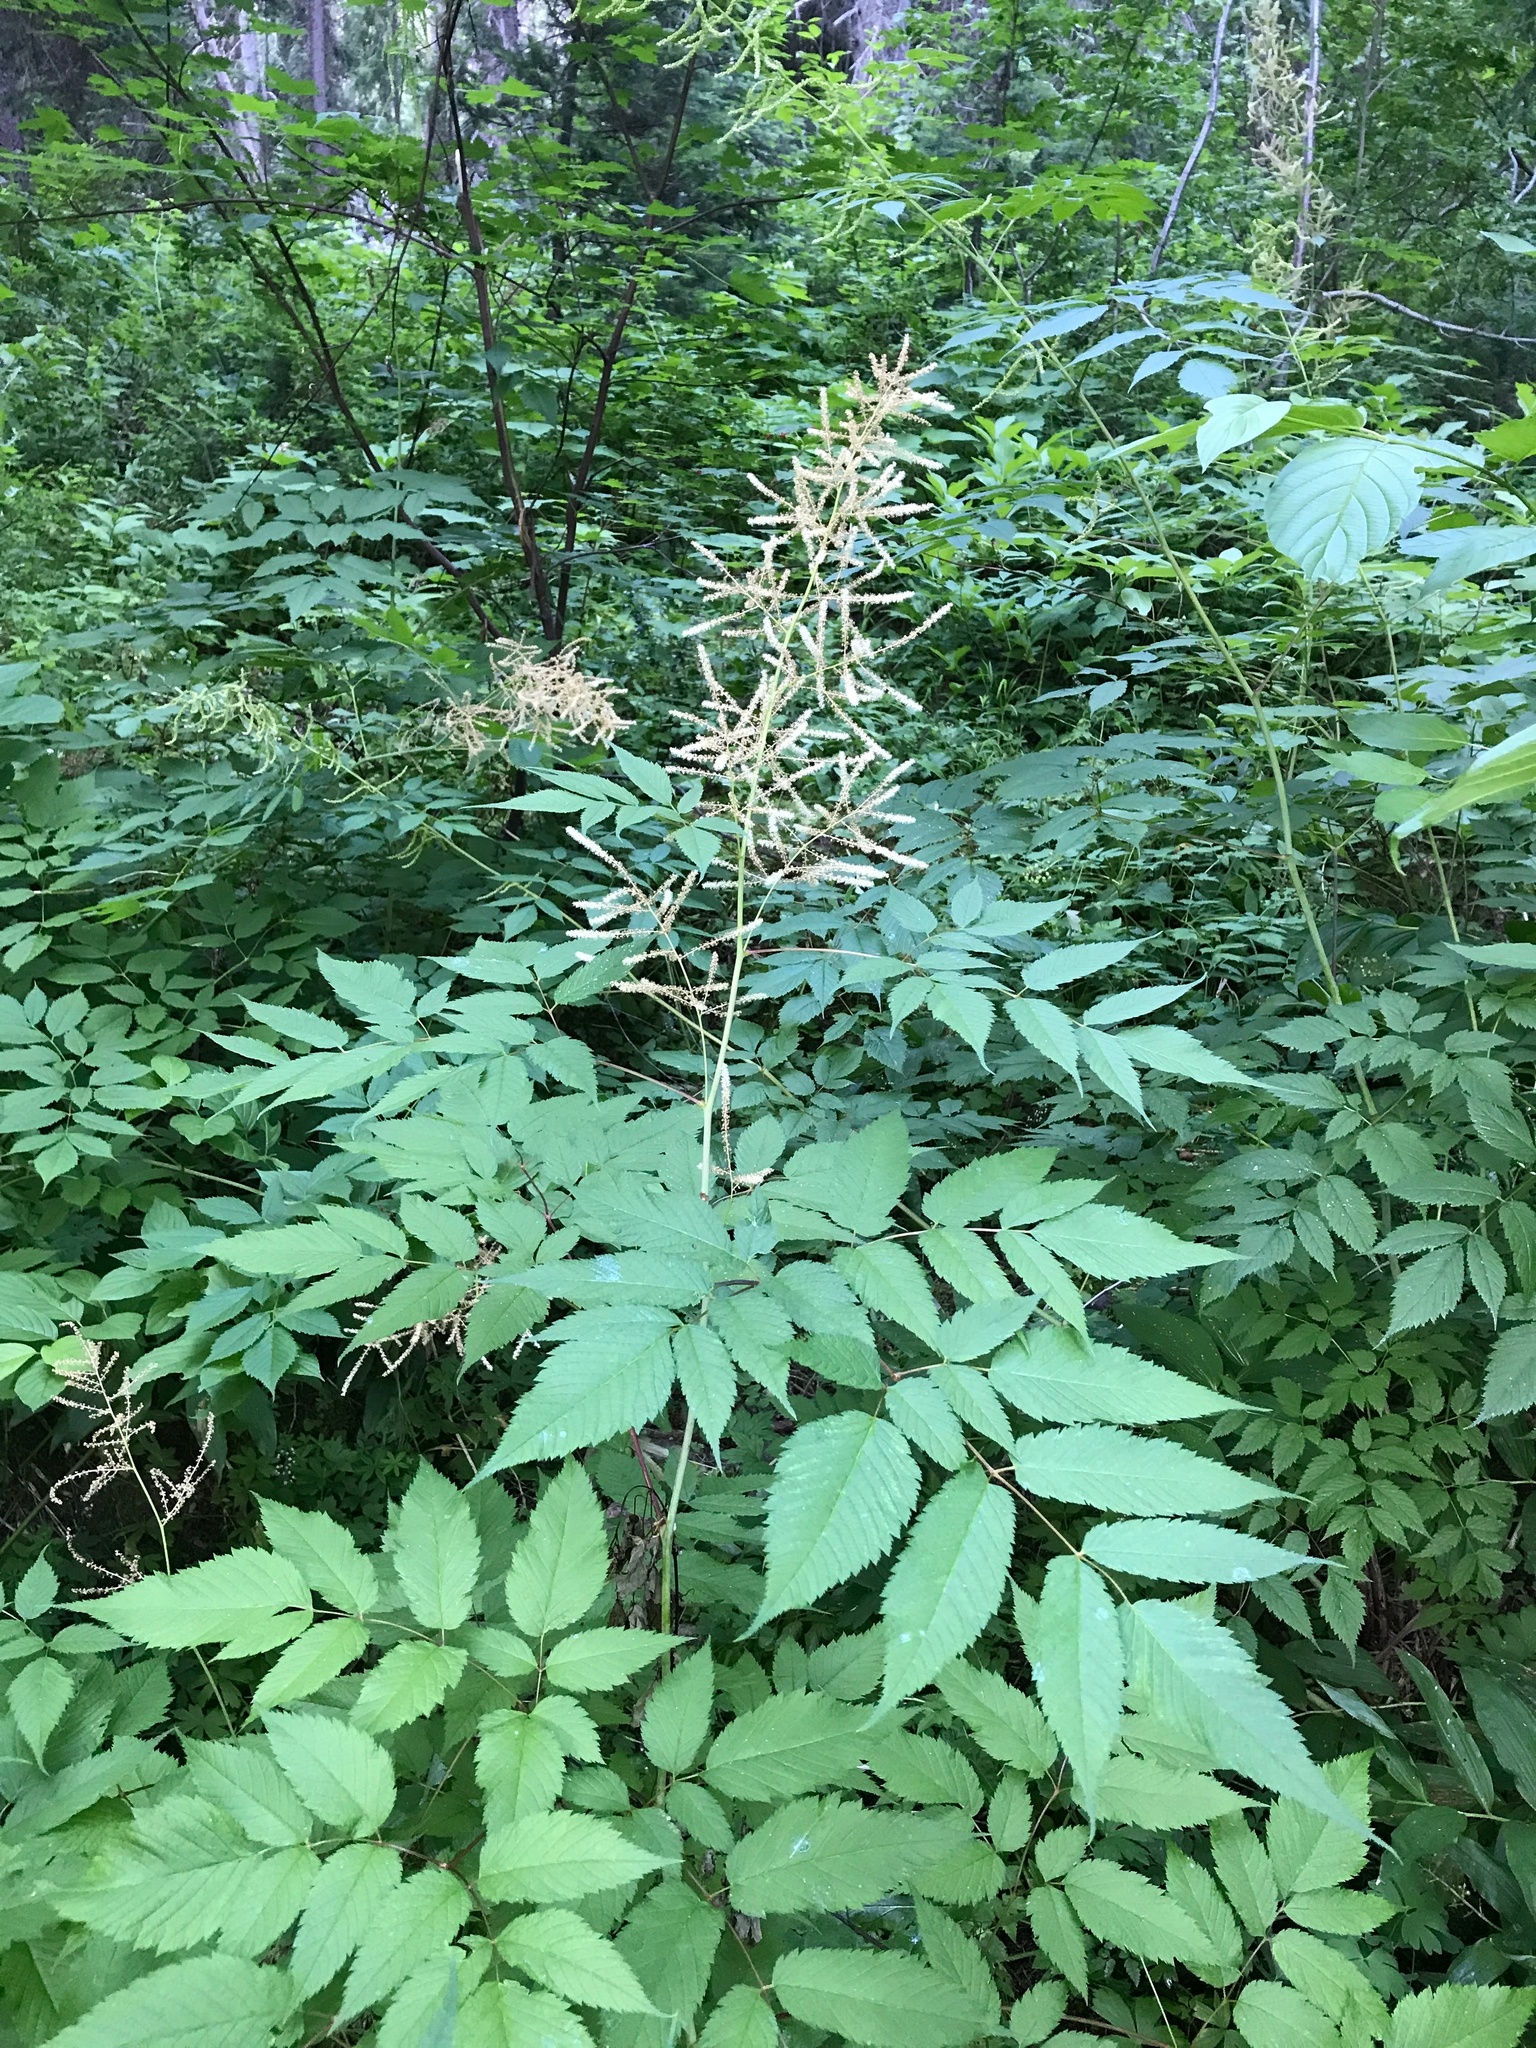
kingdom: Plantae
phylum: Tracheophyta
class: Magnoliopsida
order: Rosales
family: Rosaceae
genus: Aruncus
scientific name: Aruncus dioicus
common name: Buck's-beard
